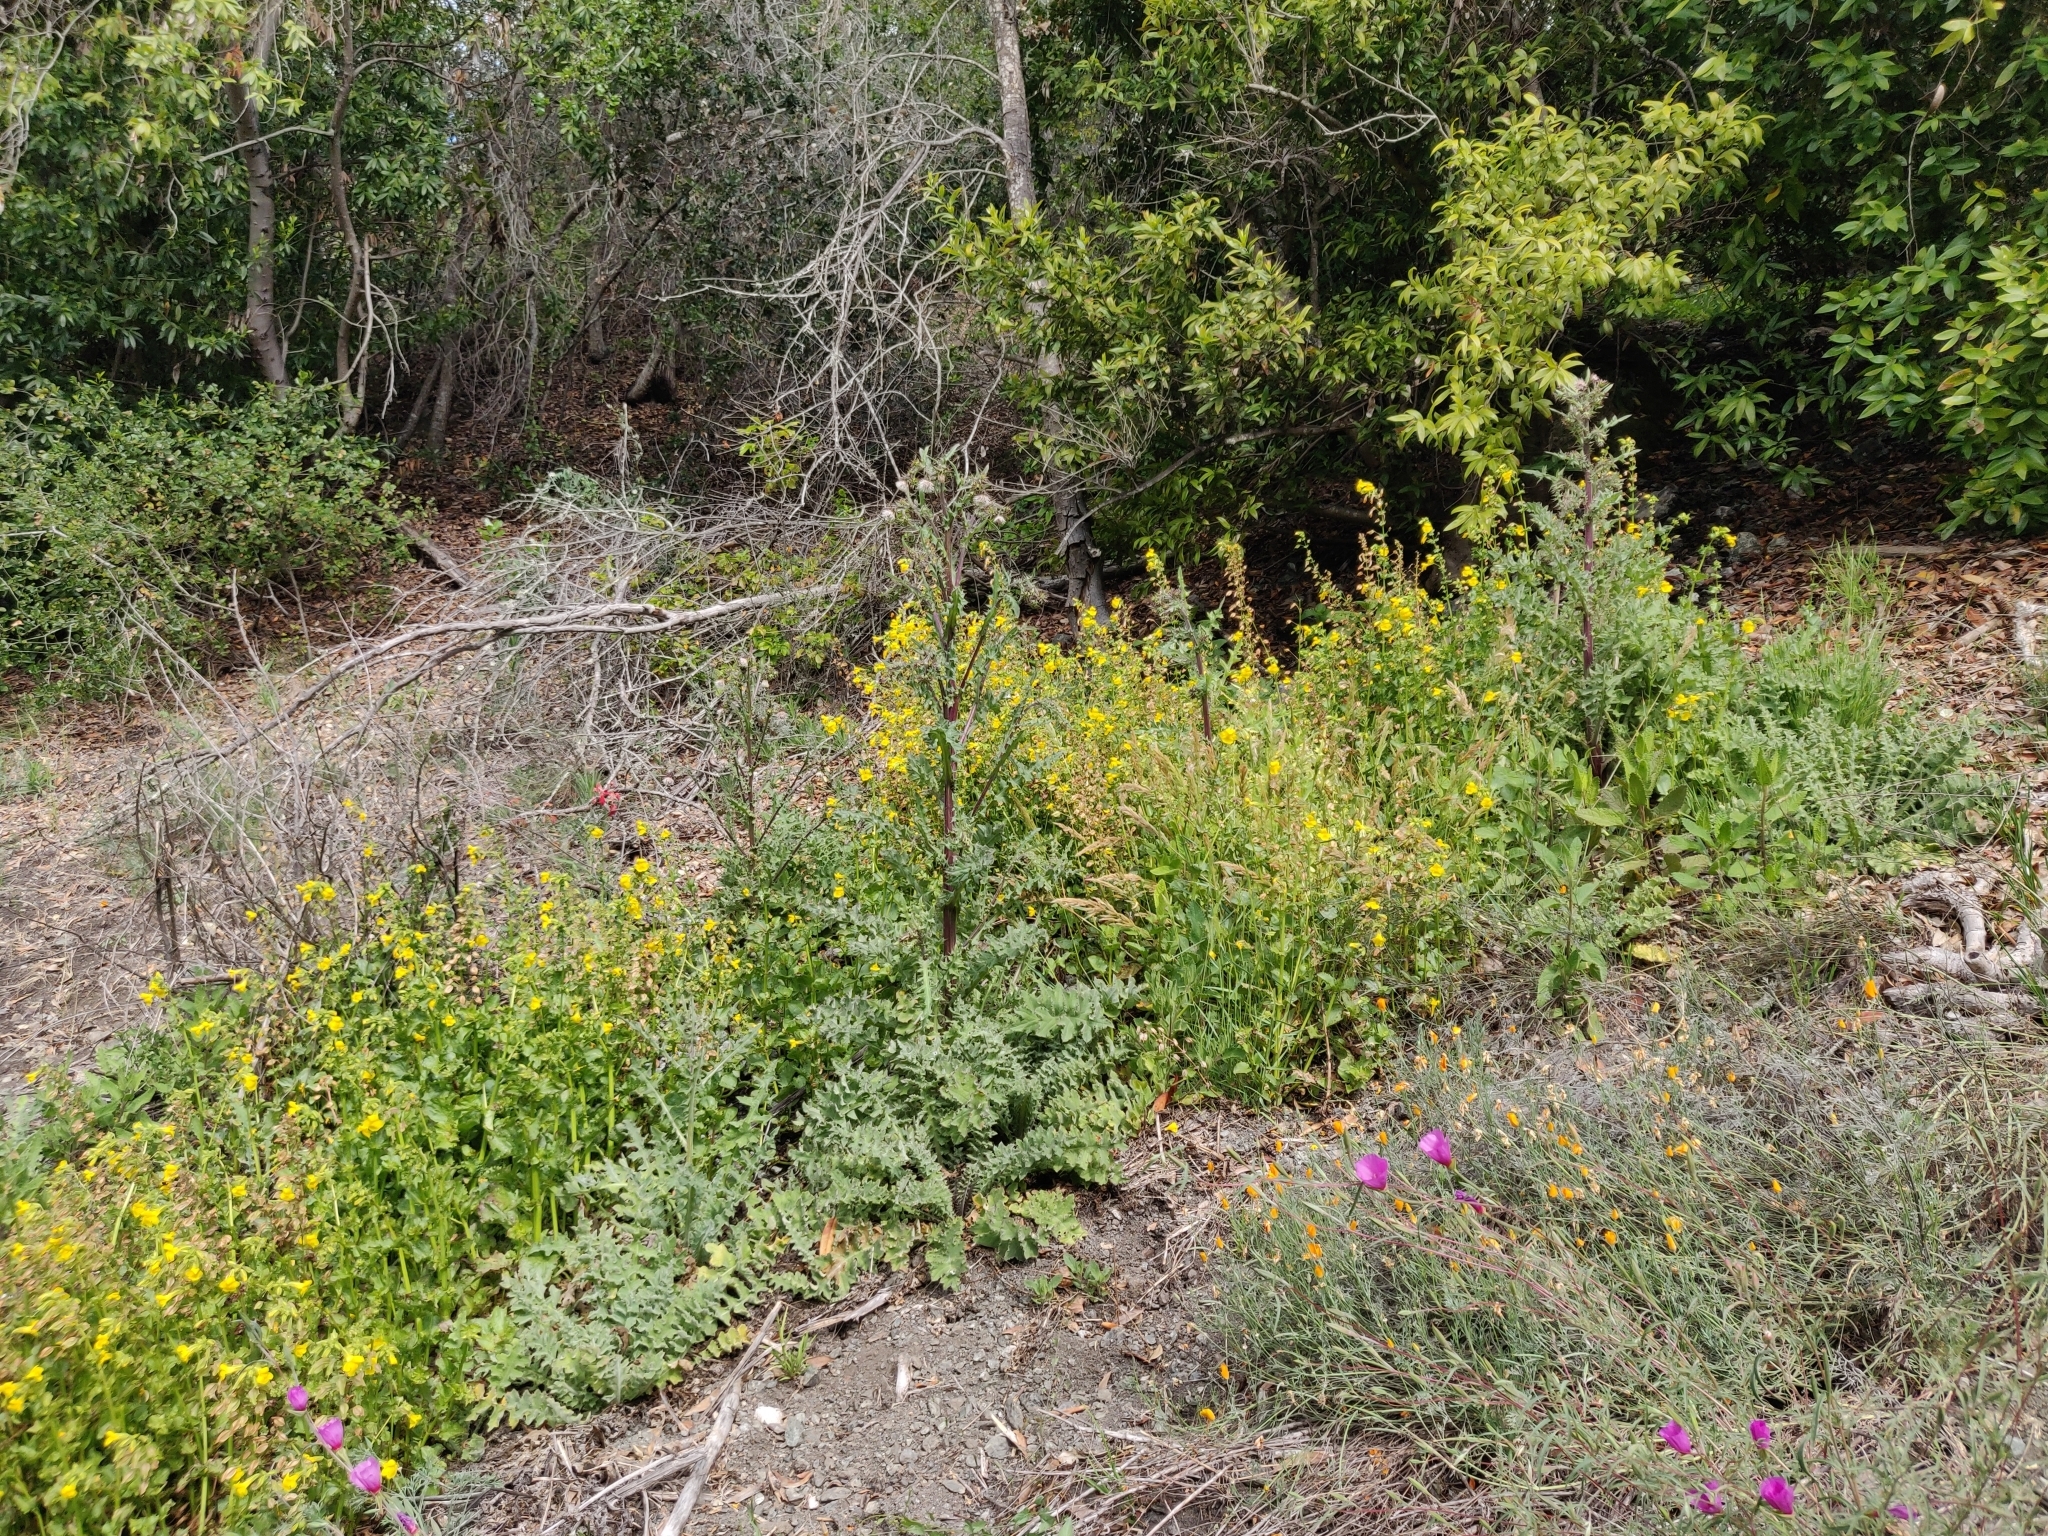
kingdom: Plantae
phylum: Tracheophyta
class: Magnoliopsida
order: Asterales
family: Asteraceae
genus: Cirsium
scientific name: Cirsium fontinale
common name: Fountain thistle
